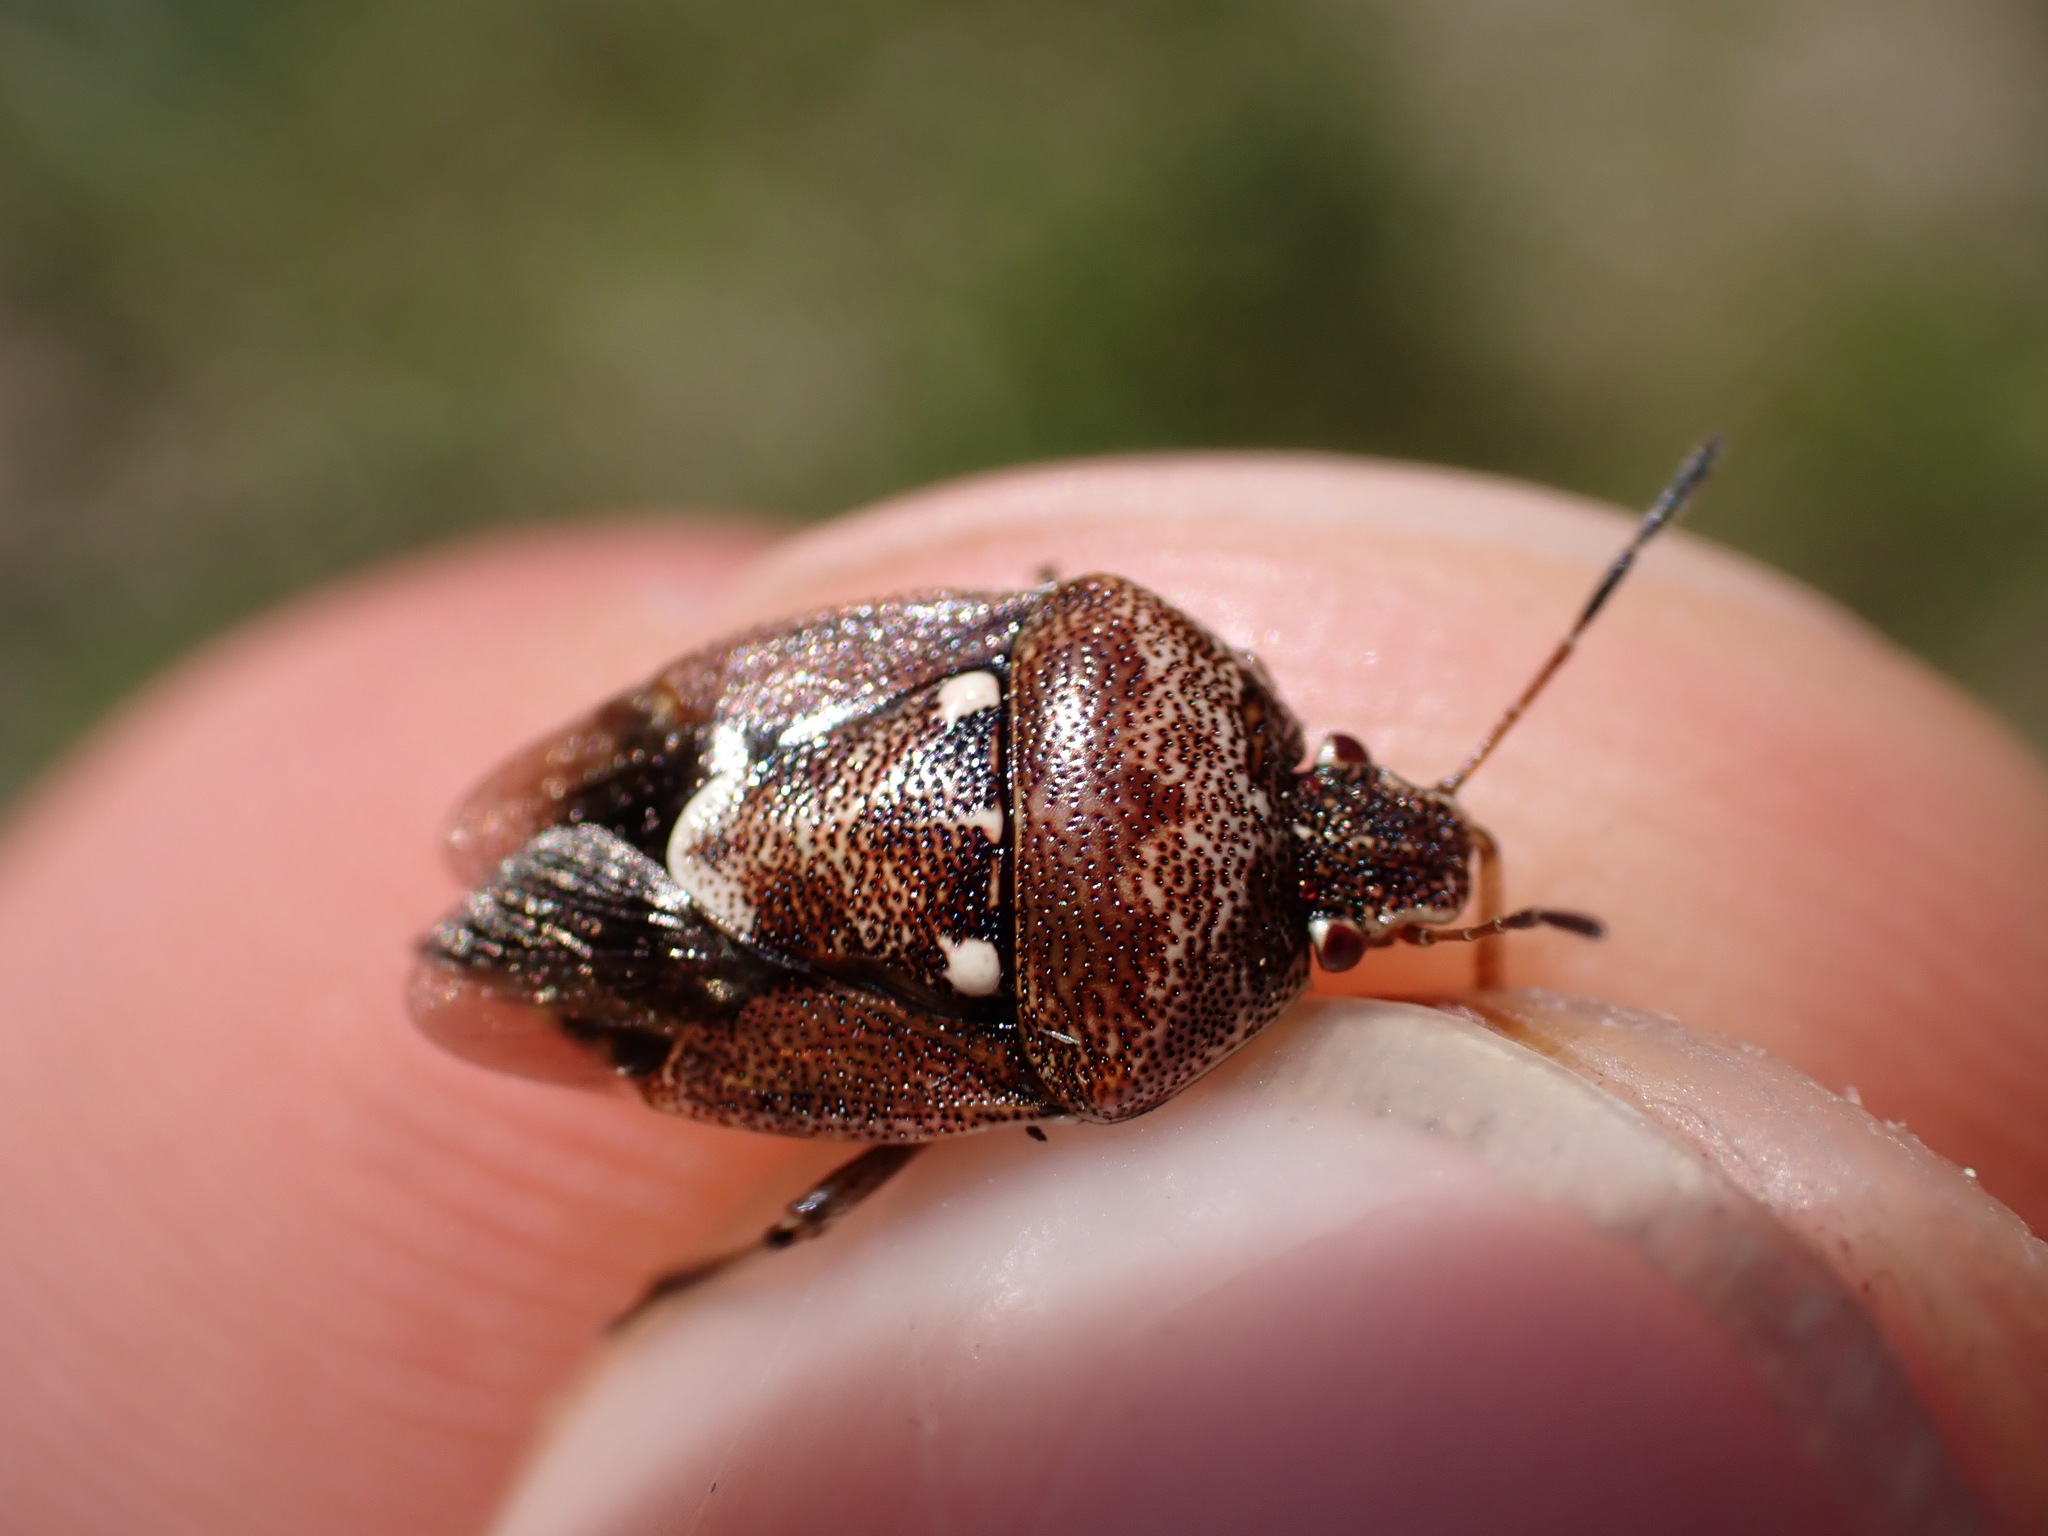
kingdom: Animalia
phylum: Arthropoda
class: Insecta
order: Hemiptera
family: Pentatomidae
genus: Stagonomus
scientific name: Stagonomus amoenus
